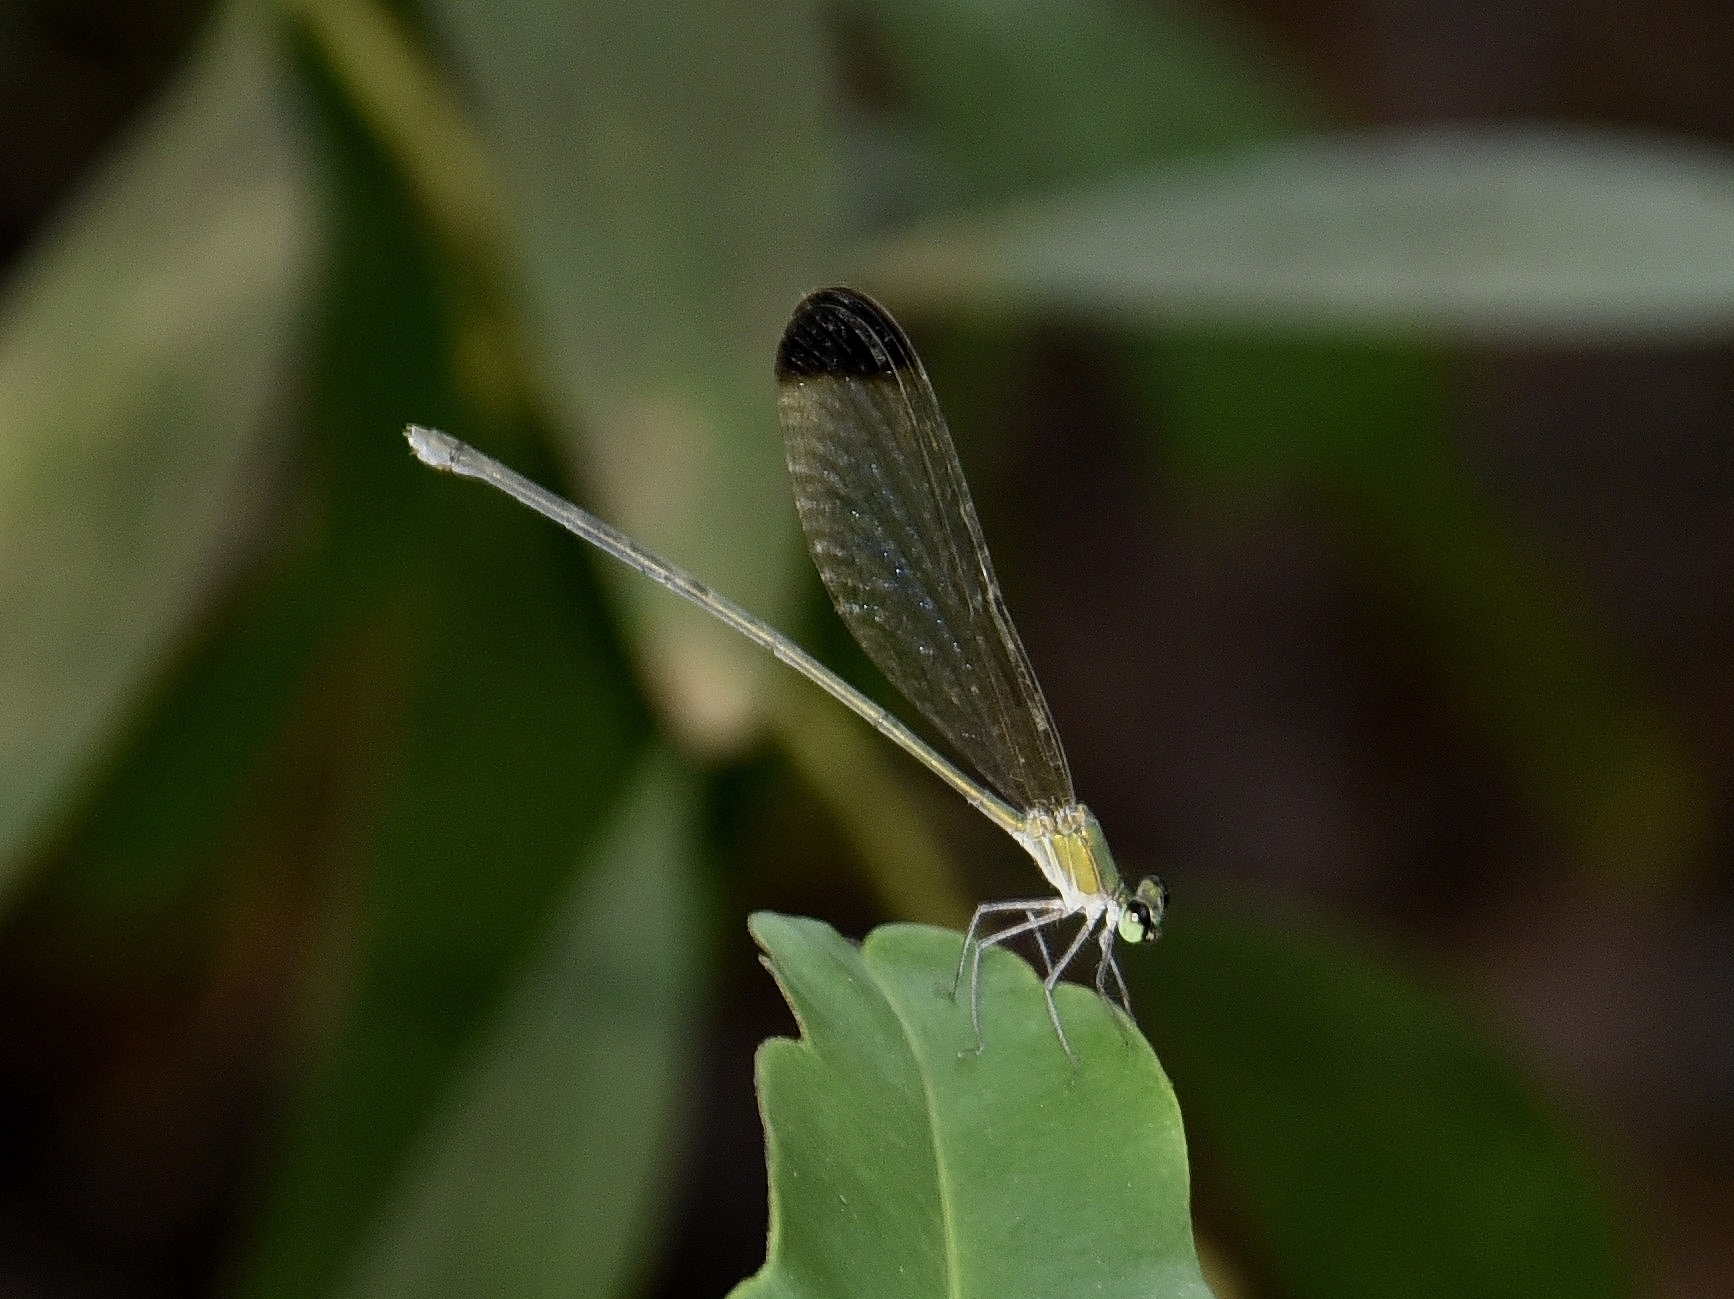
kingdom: Animalia
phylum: Arthropoda
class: Insecta
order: Odonata
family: Calopterygidae
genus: Vestalis
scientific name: Vestalis apicalis
